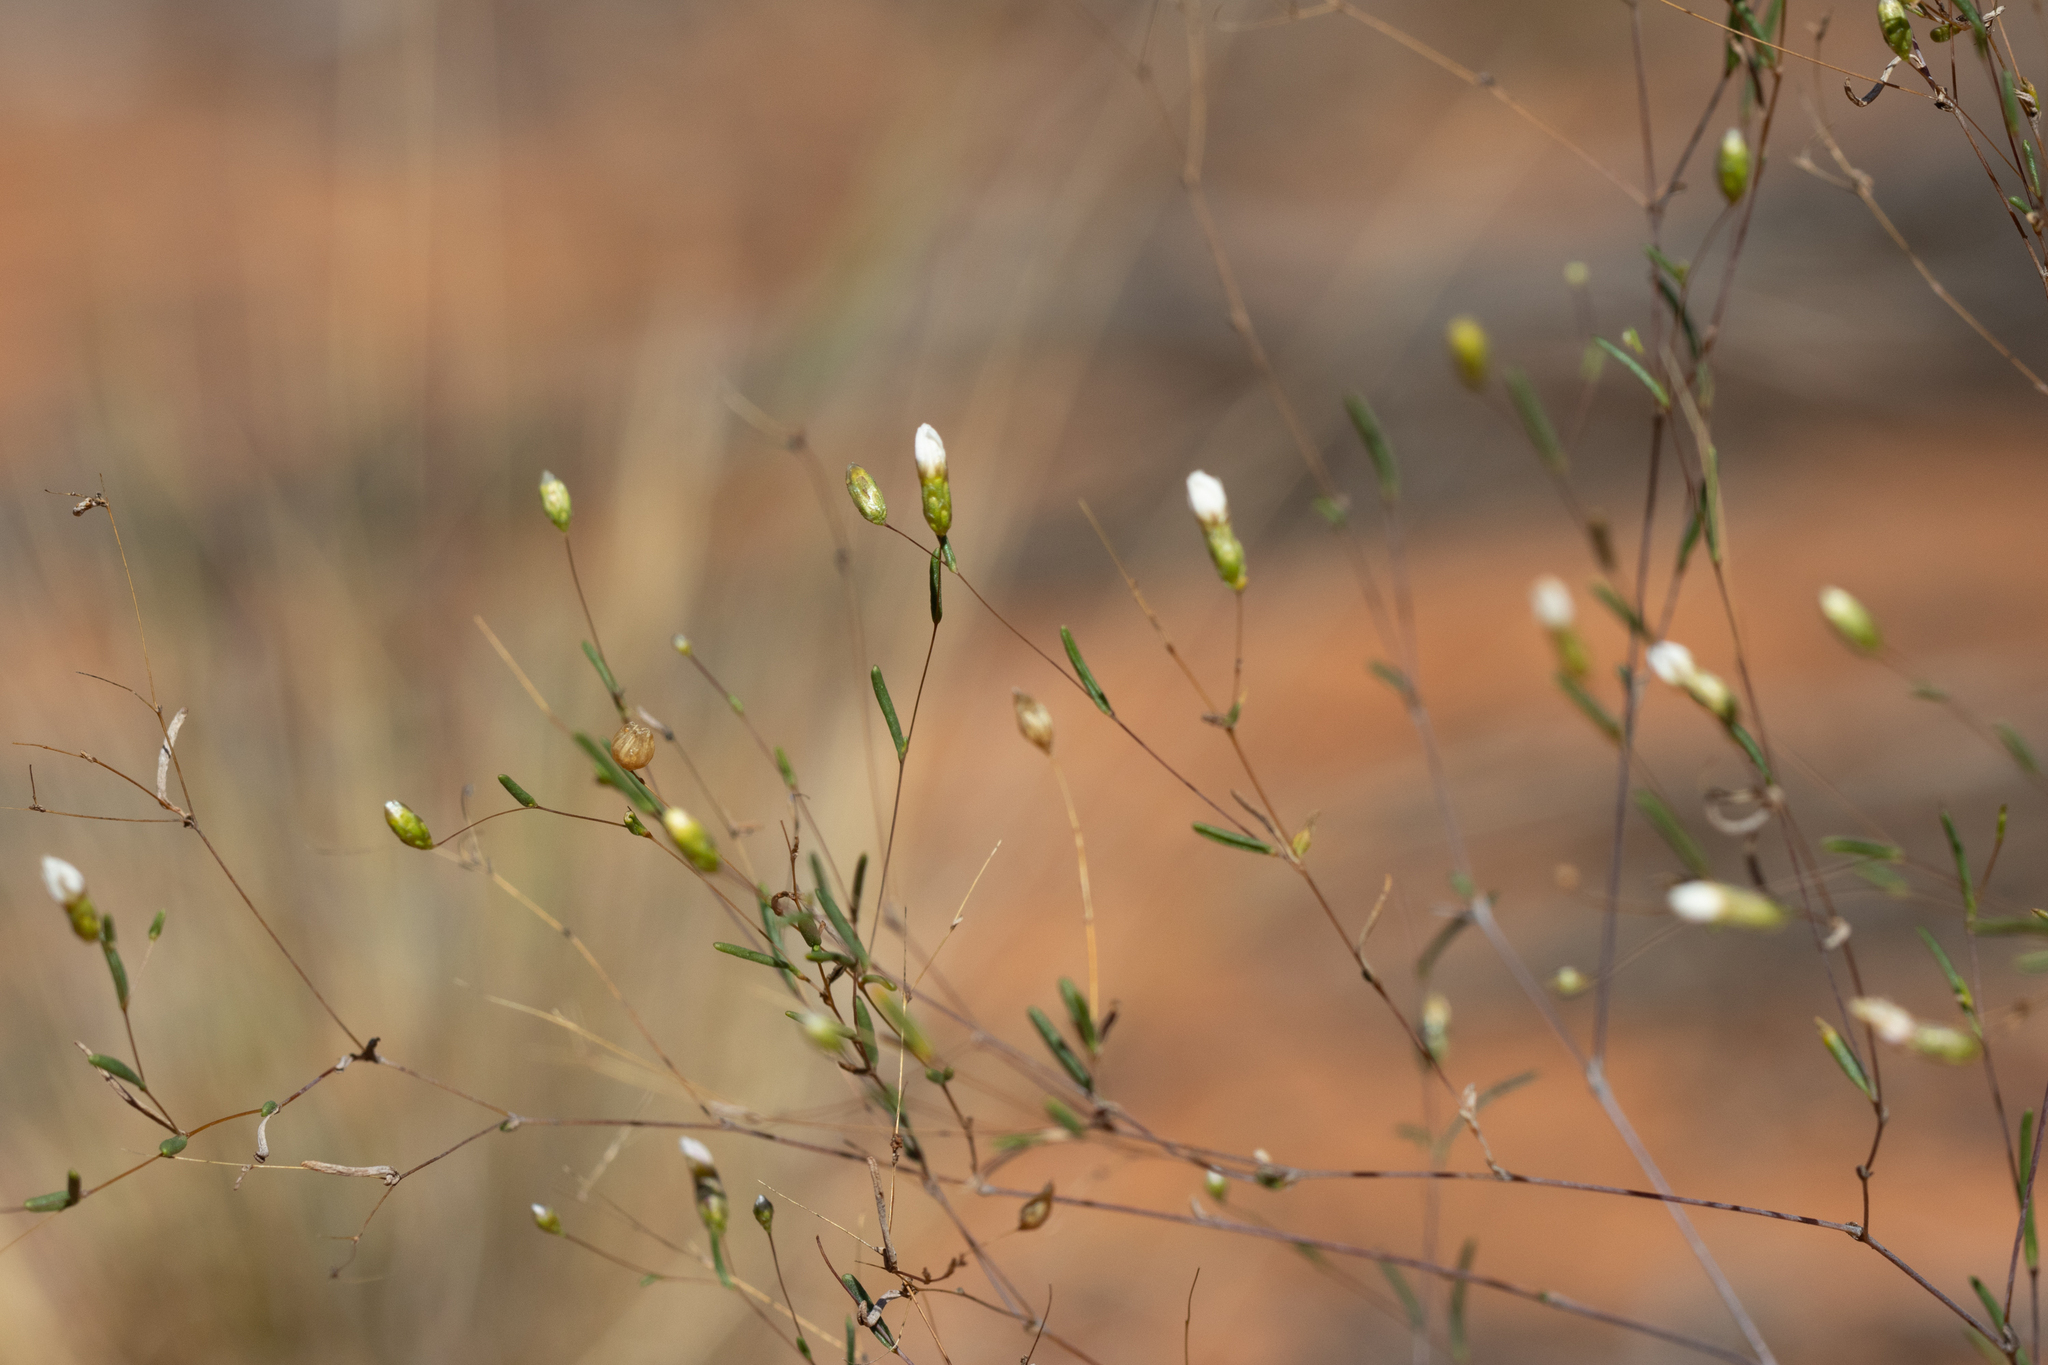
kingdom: Plantae
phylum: Tracheophyta
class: Magnoliopsida
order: Asterales
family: Asteraceae
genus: Siemssenia
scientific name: Siemssenia capillaris
